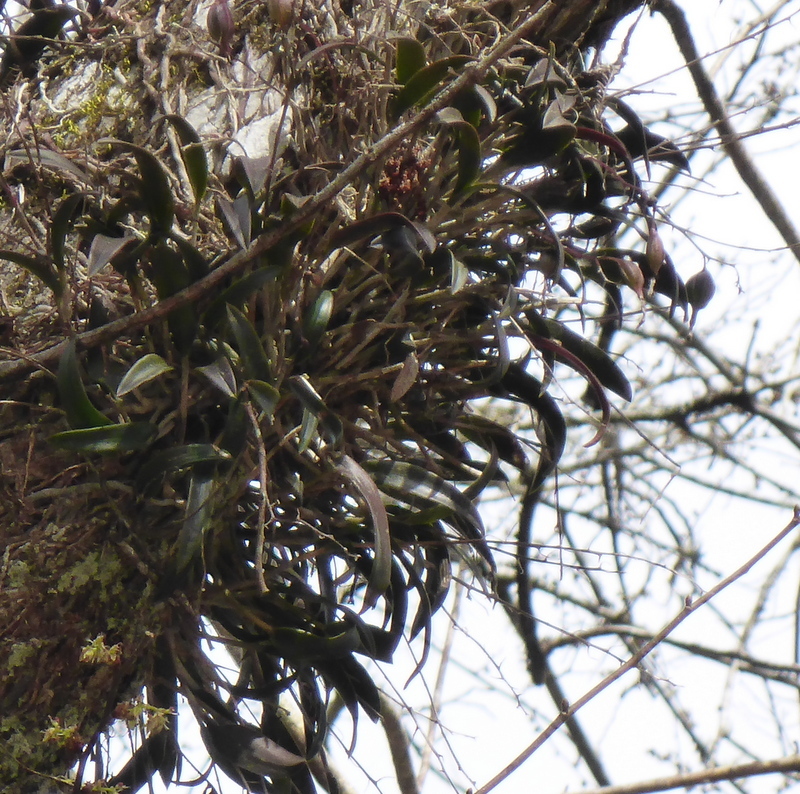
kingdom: Plantae
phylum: Tracheophyta
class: Liliopsida
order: Asparagales
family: Orchidaceae
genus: Epidendrum
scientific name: Epidendrum conopseum
